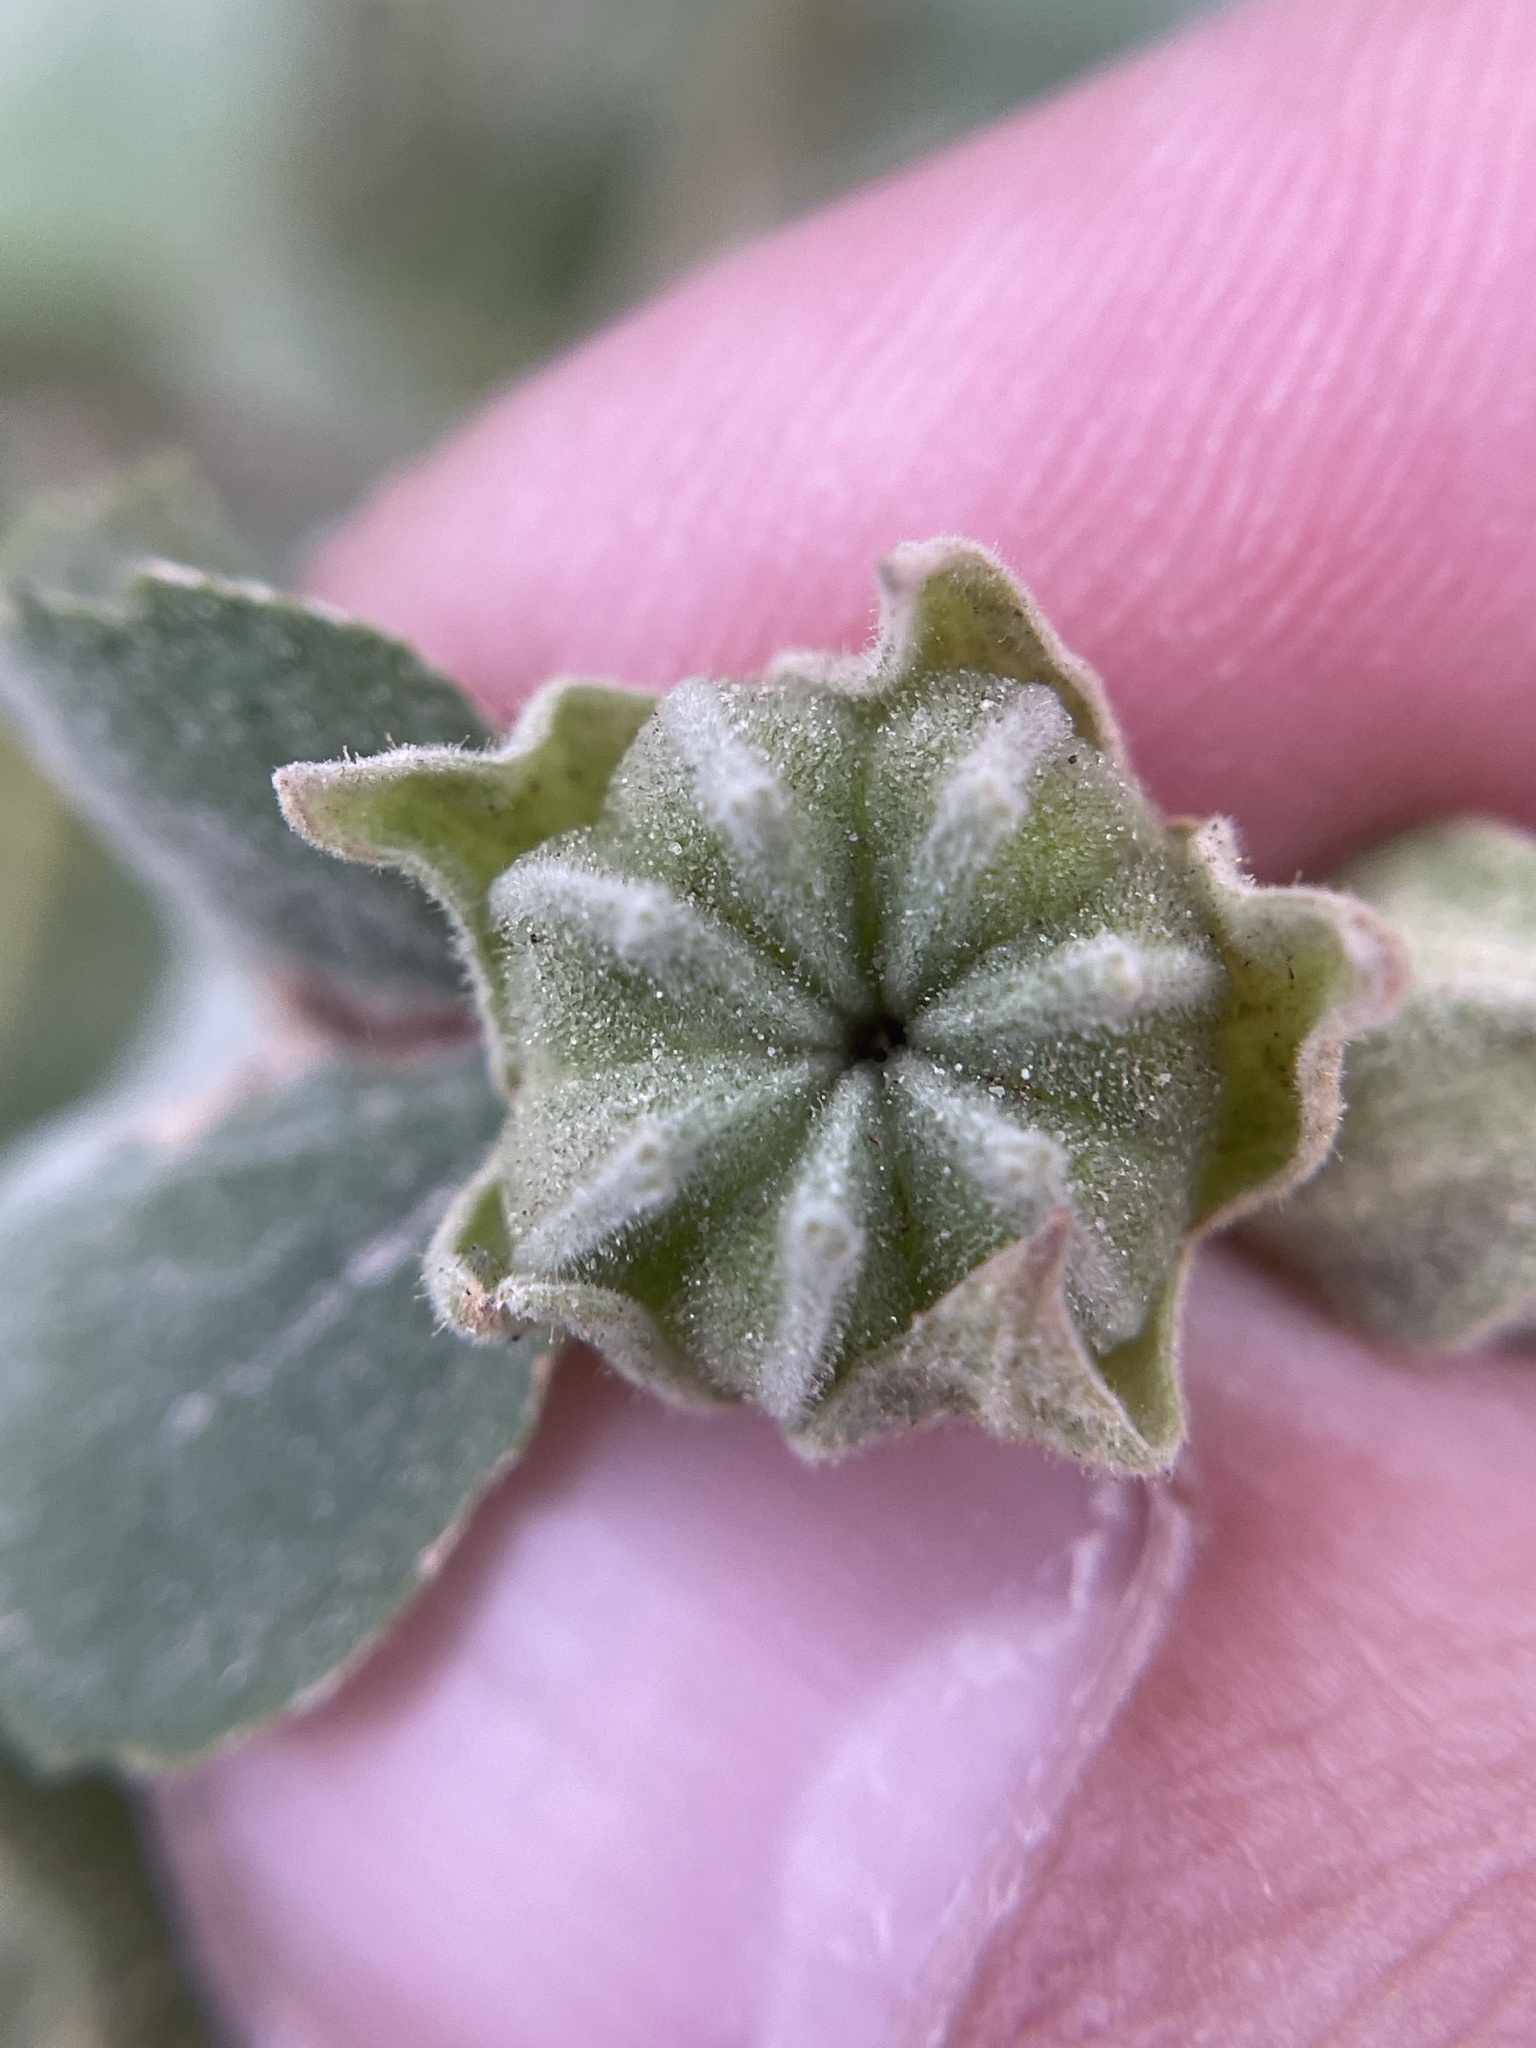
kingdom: Plantae
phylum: Tracheophyta
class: Magnoliopsida
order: Malvales
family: Malvaceae
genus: Abutilon
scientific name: Abutilon berlandieri
